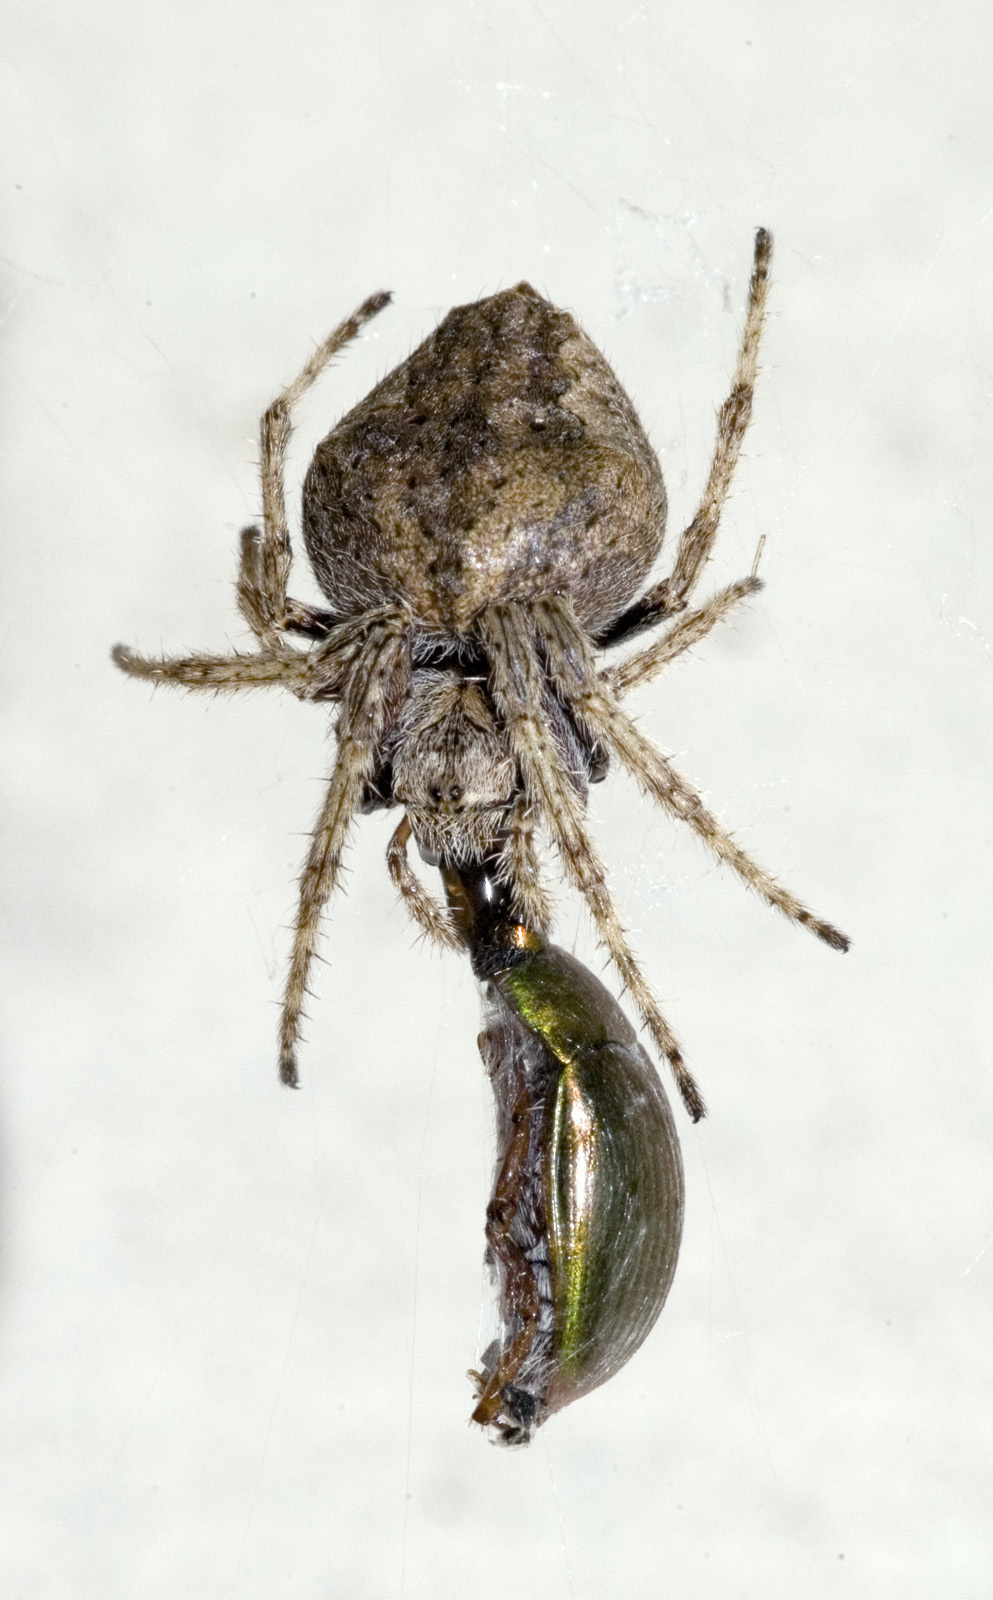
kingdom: Animalia
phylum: Arthropoda
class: Arachnida
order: Araneae
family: Araneidae
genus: Eriophora
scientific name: Eriophora pustulosa
